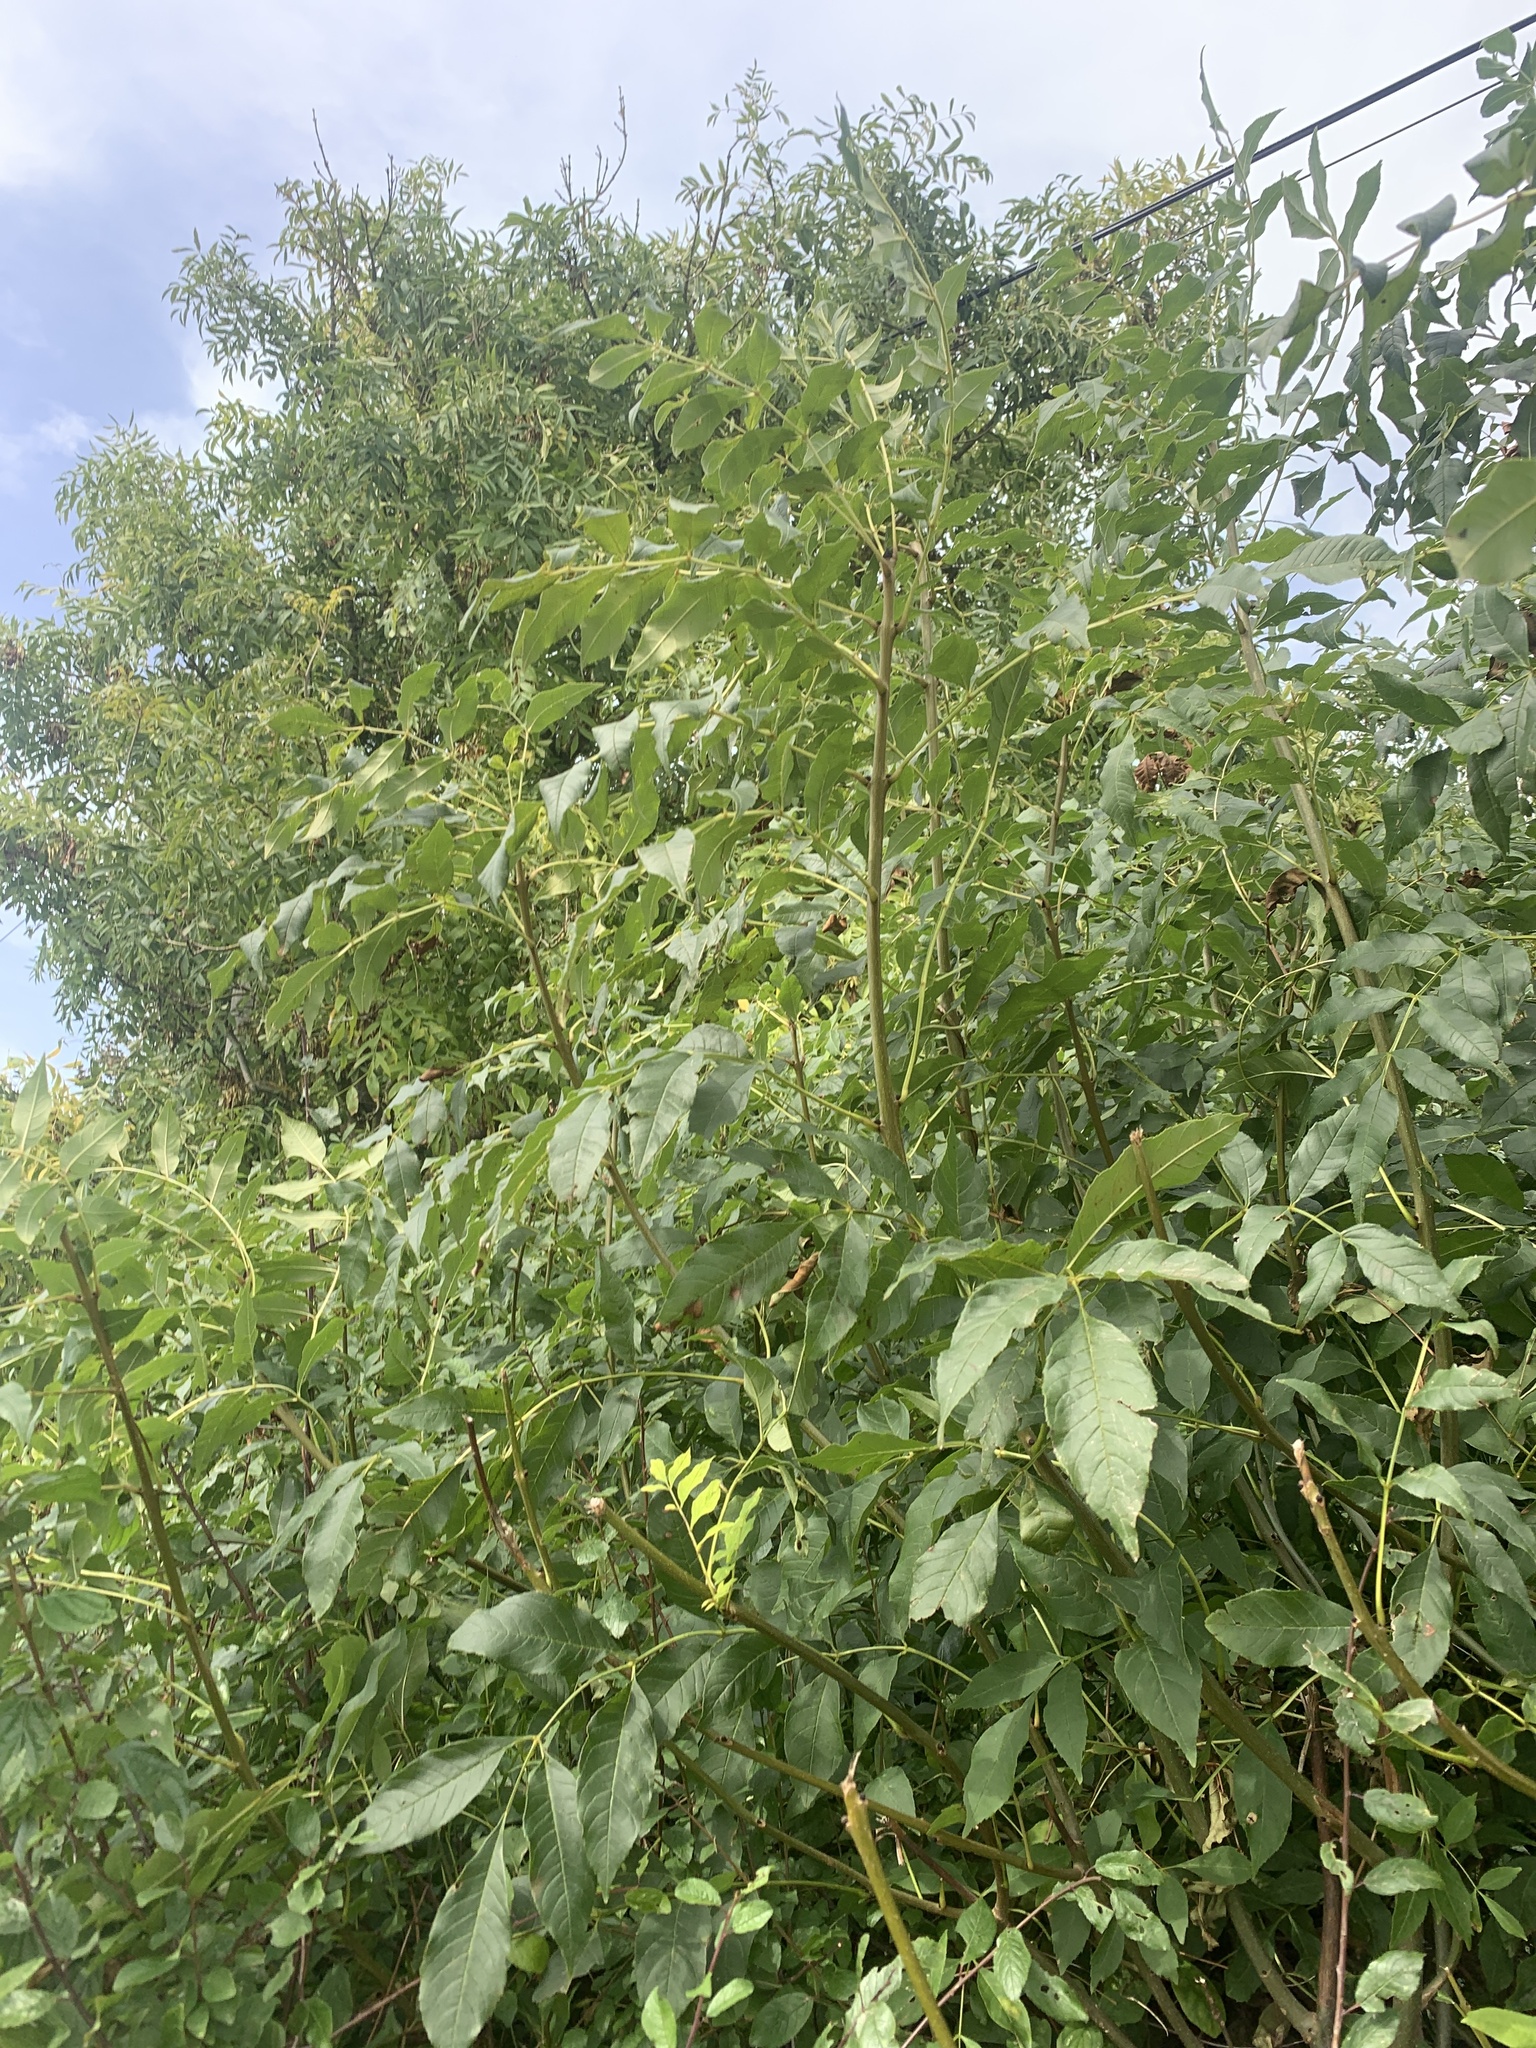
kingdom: Plantae
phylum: Tracheophyta
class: Magnoliopsida
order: Lamiales
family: Oleaceae
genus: Fraxinus
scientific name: Fraxinus excelsior
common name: European ash
